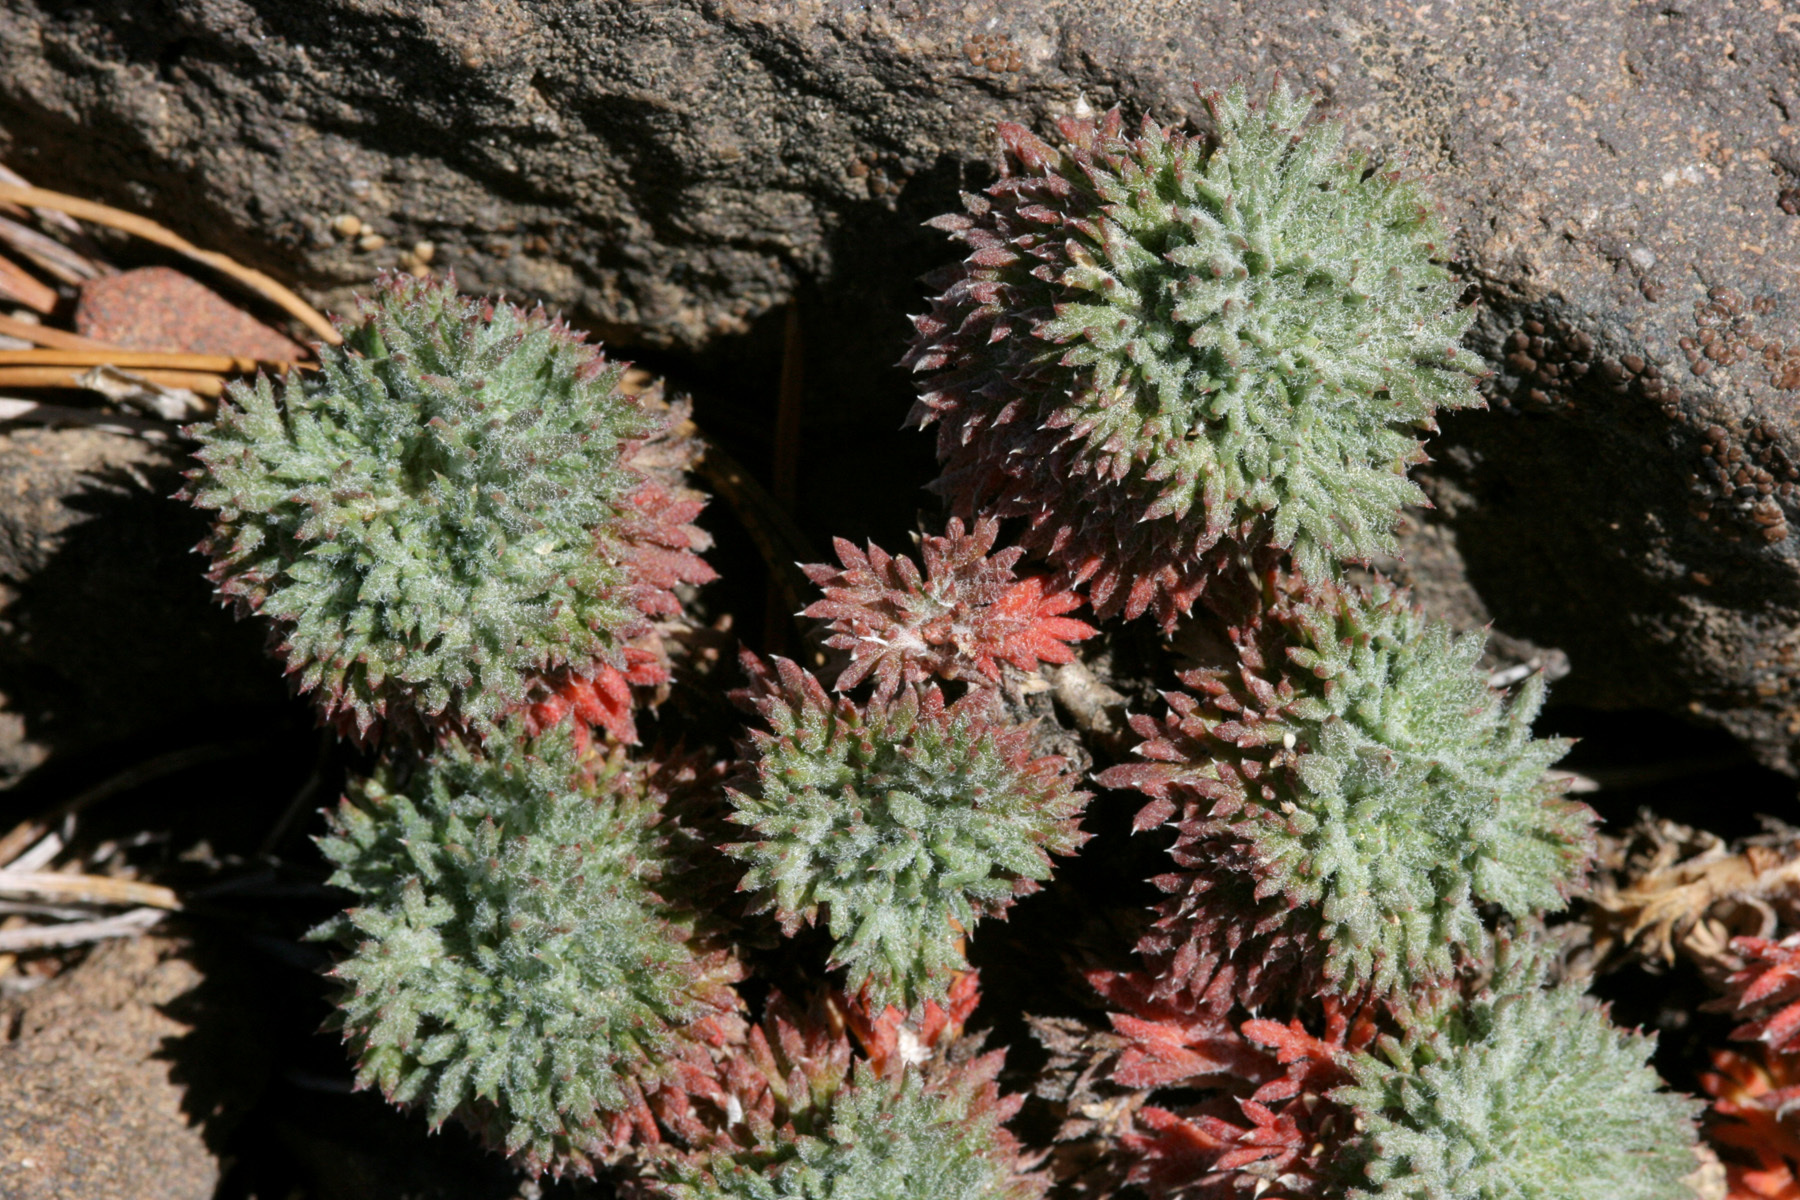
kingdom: Plantae
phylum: Tracheophyta
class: Magnoliopsida
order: Ericales
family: Polemoniaceae
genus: Ipomopsis
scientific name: Ipomopsis congesta
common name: Ball-head gilia
